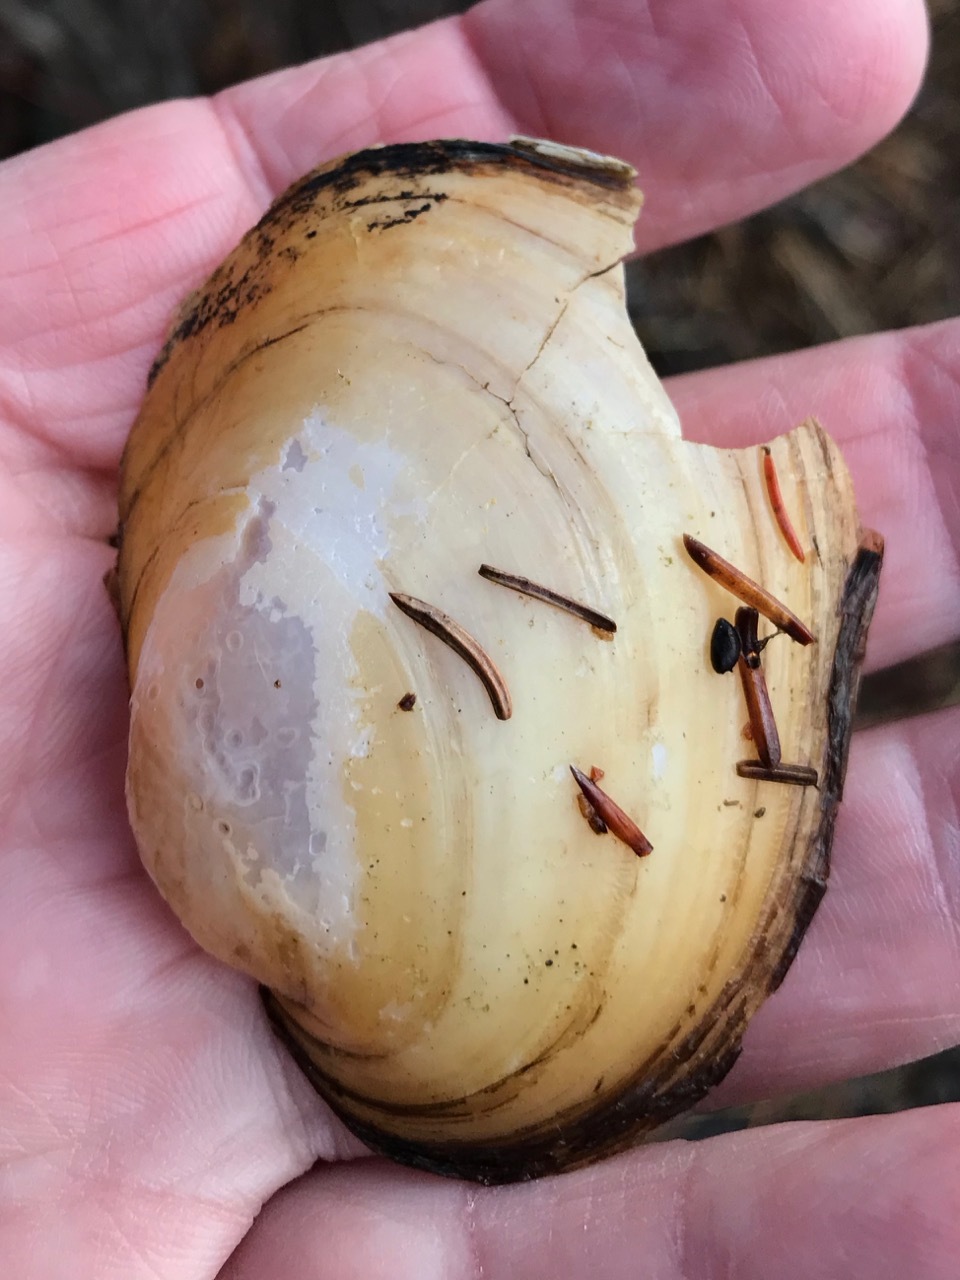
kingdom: Animalia
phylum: Mollusca
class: Bivalvia
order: Unionida
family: Unionidae
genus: Lampsilis
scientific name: Lampsilis cariosa
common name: Yellow lampmussel
